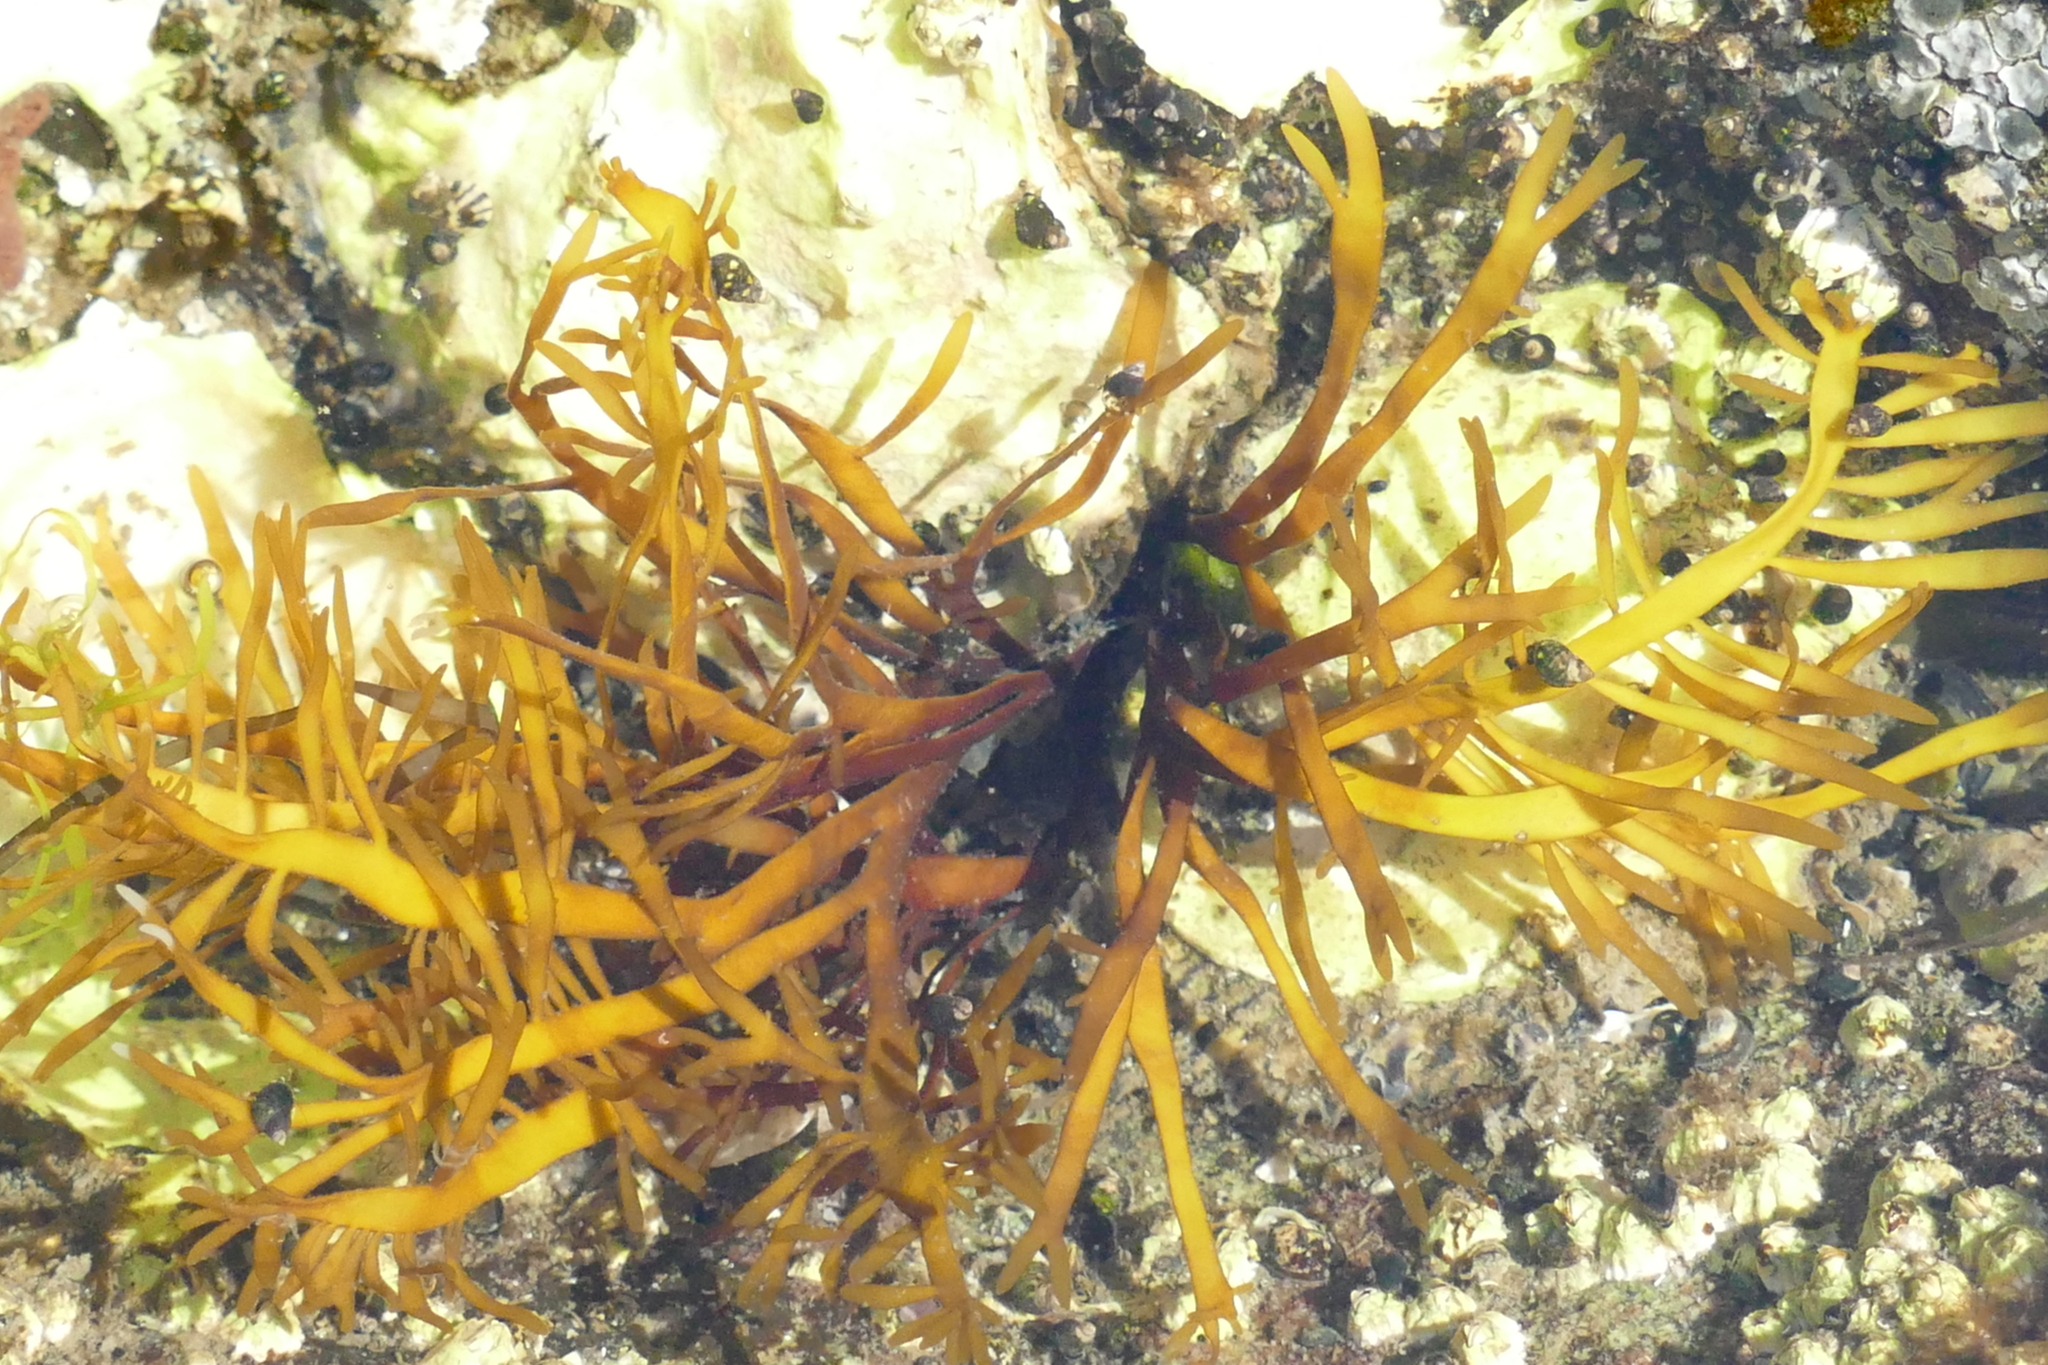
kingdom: Plantae
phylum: Rhodophyta
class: Florideophyceae
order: Halymeniales
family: Halymeniaceae
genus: Grateloupia
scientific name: Grateloupia Prionitis lanceolata
